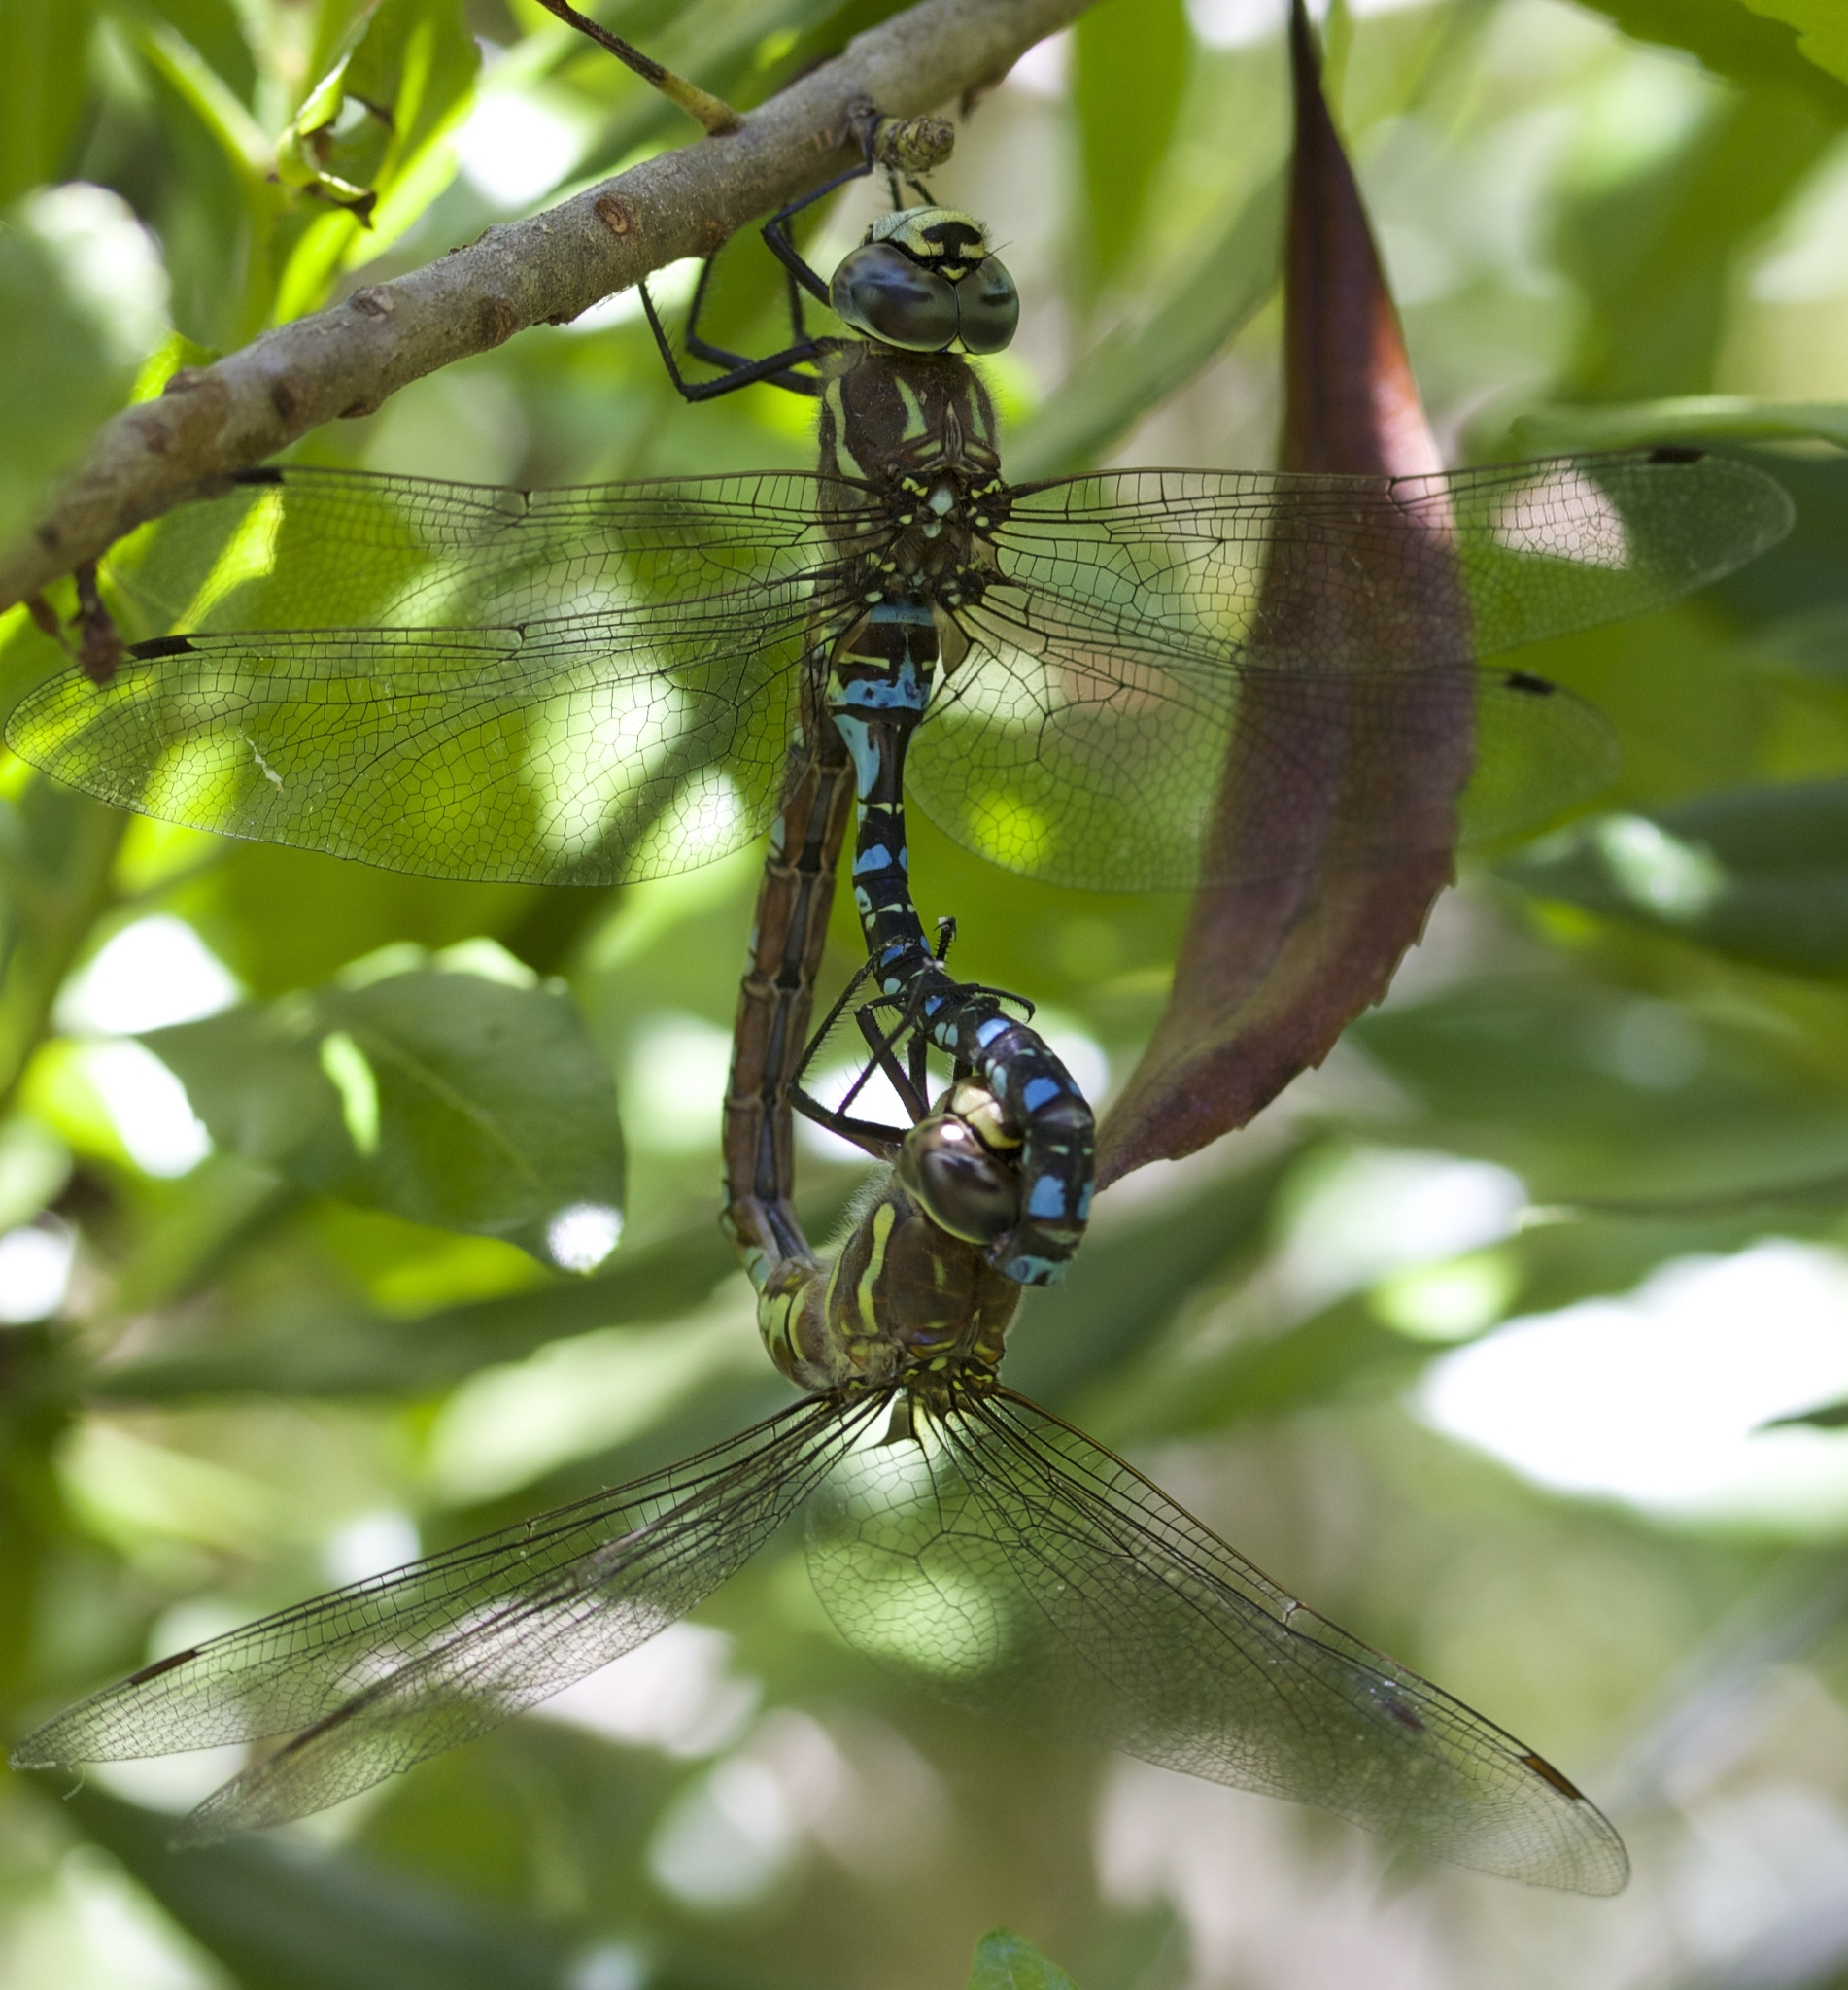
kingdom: Animalia
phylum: Arthropoda
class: Insecta
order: Odonata
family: Aeshnidae
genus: Aeshna
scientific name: Aeshna palmata
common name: Paddle-tailed darner
